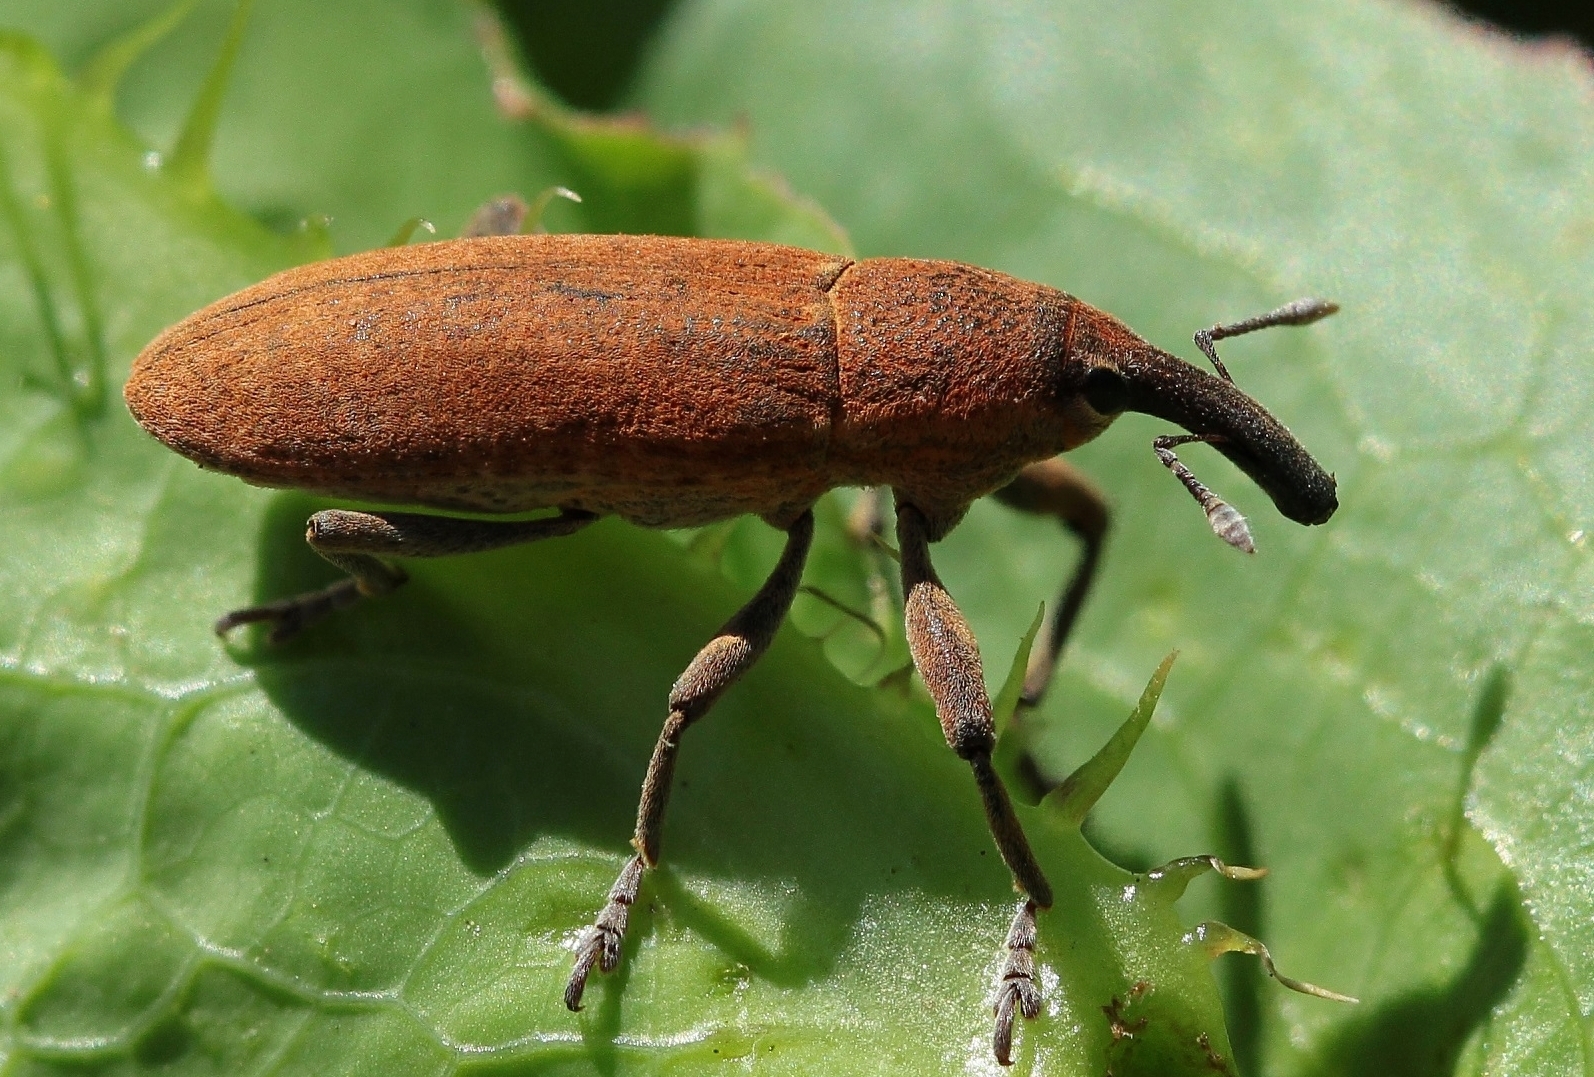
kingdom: Animalia
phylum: Arthropoda
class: Insecta
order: Coleoptera
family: Curculionidae
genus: Lixus
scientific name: Lixus punctiventris
